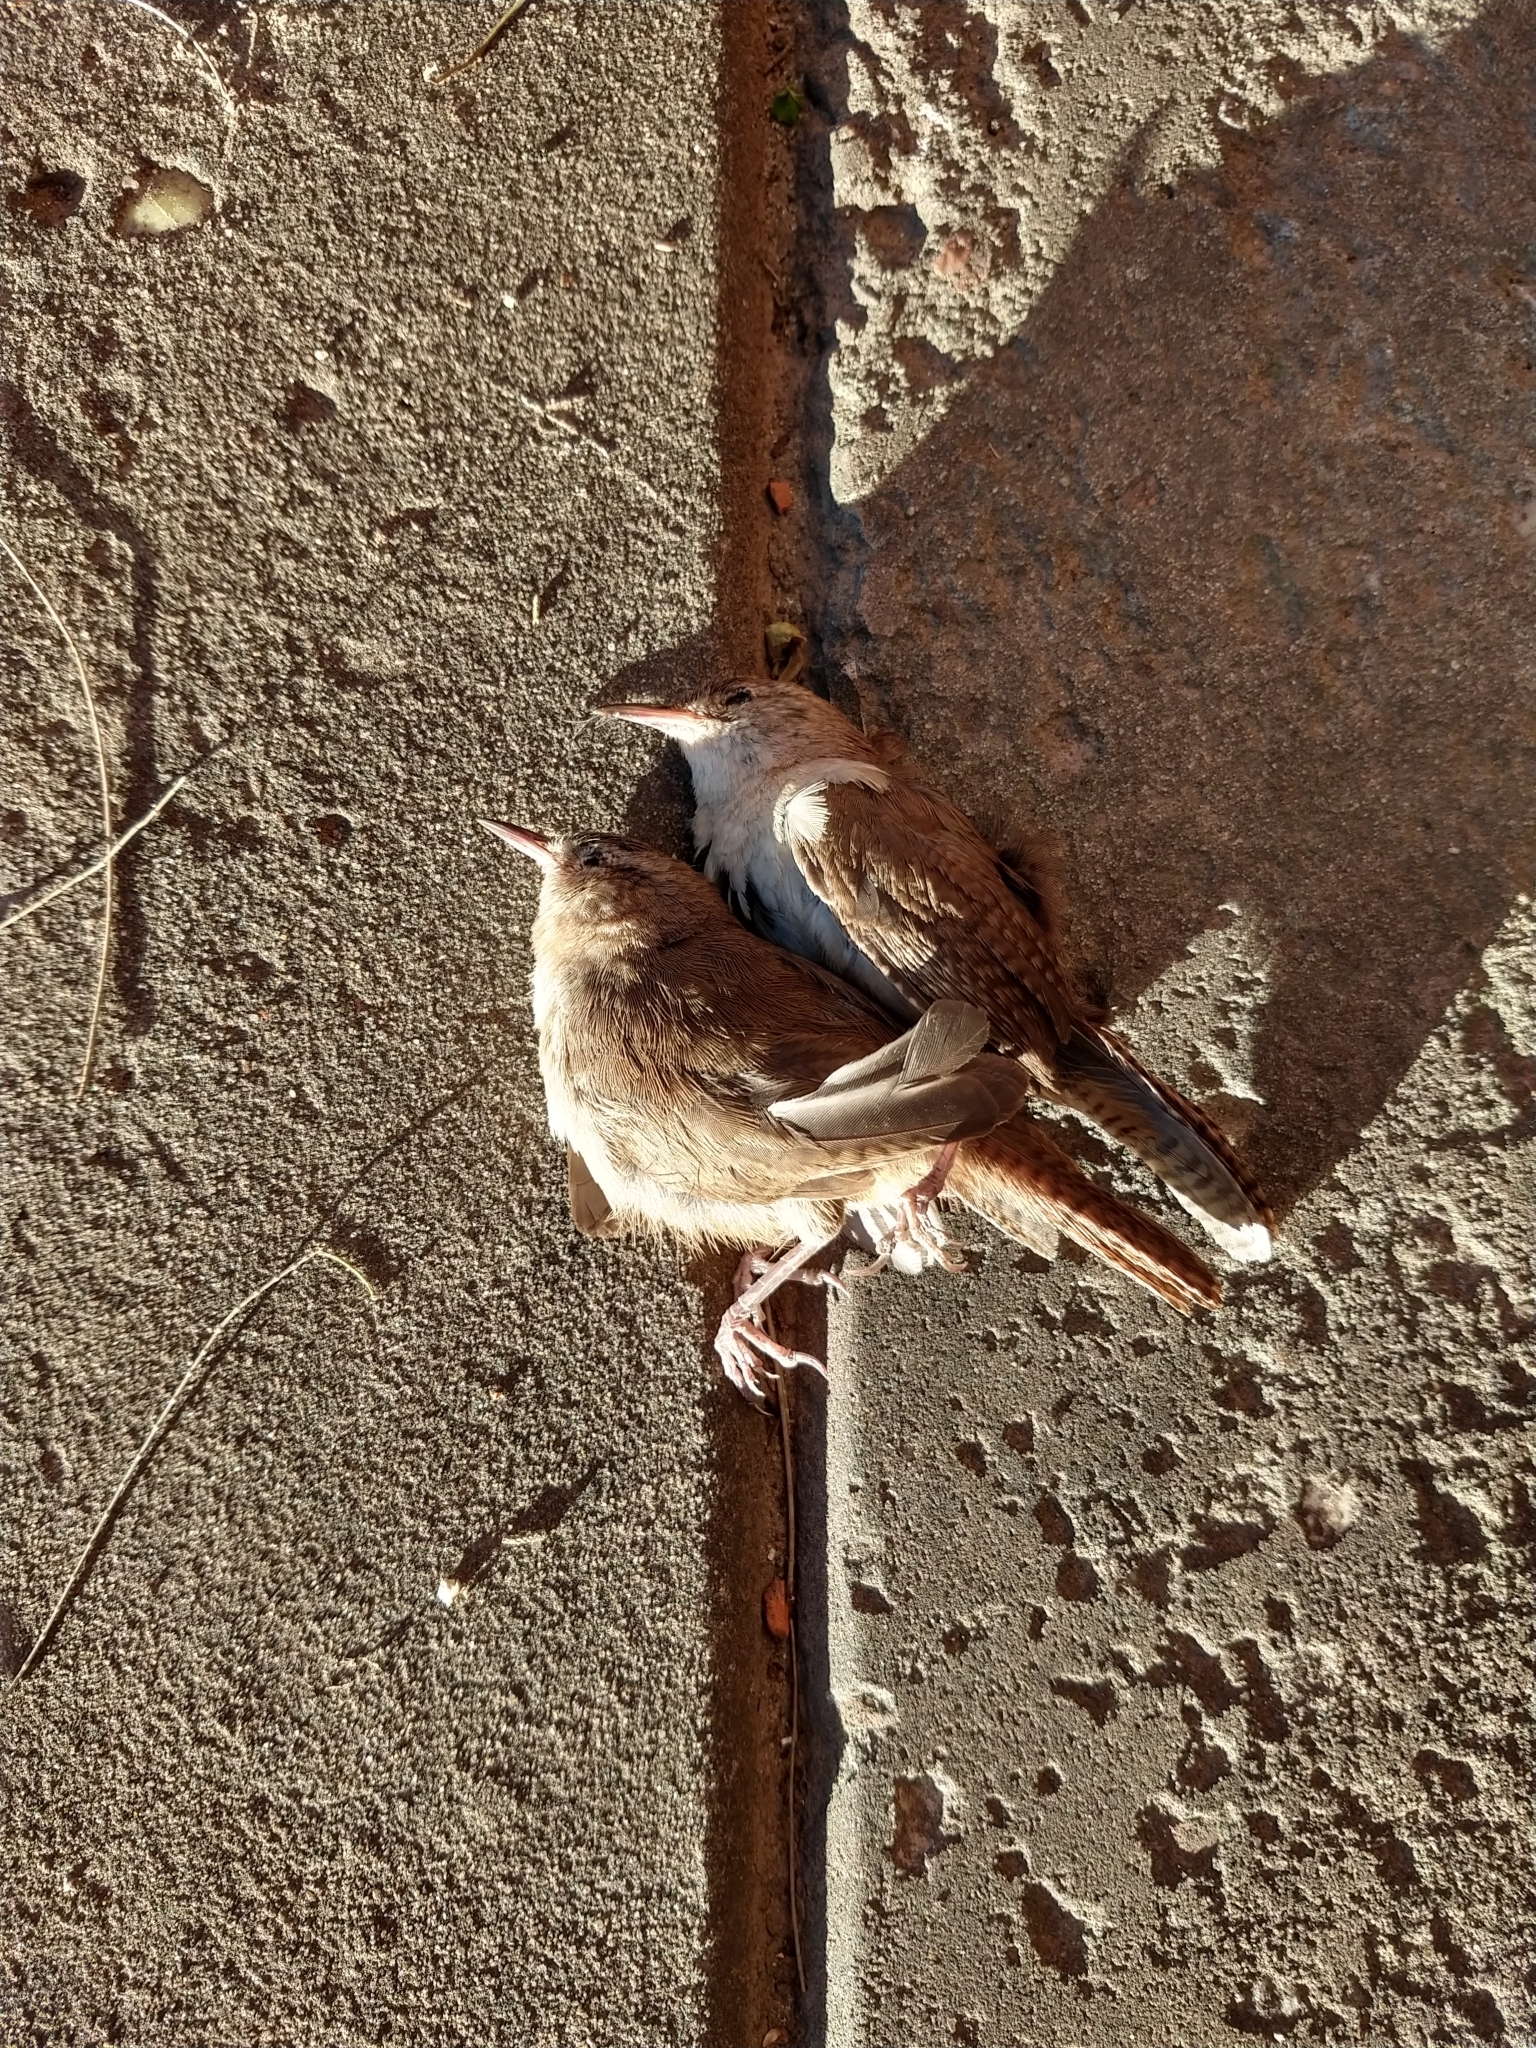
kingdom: Animalia
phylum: Chordata
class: Aves
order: Passeriformes
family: Troglodytidae
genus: Troglodytes
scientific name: Troglodytes aedon
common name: House wren
